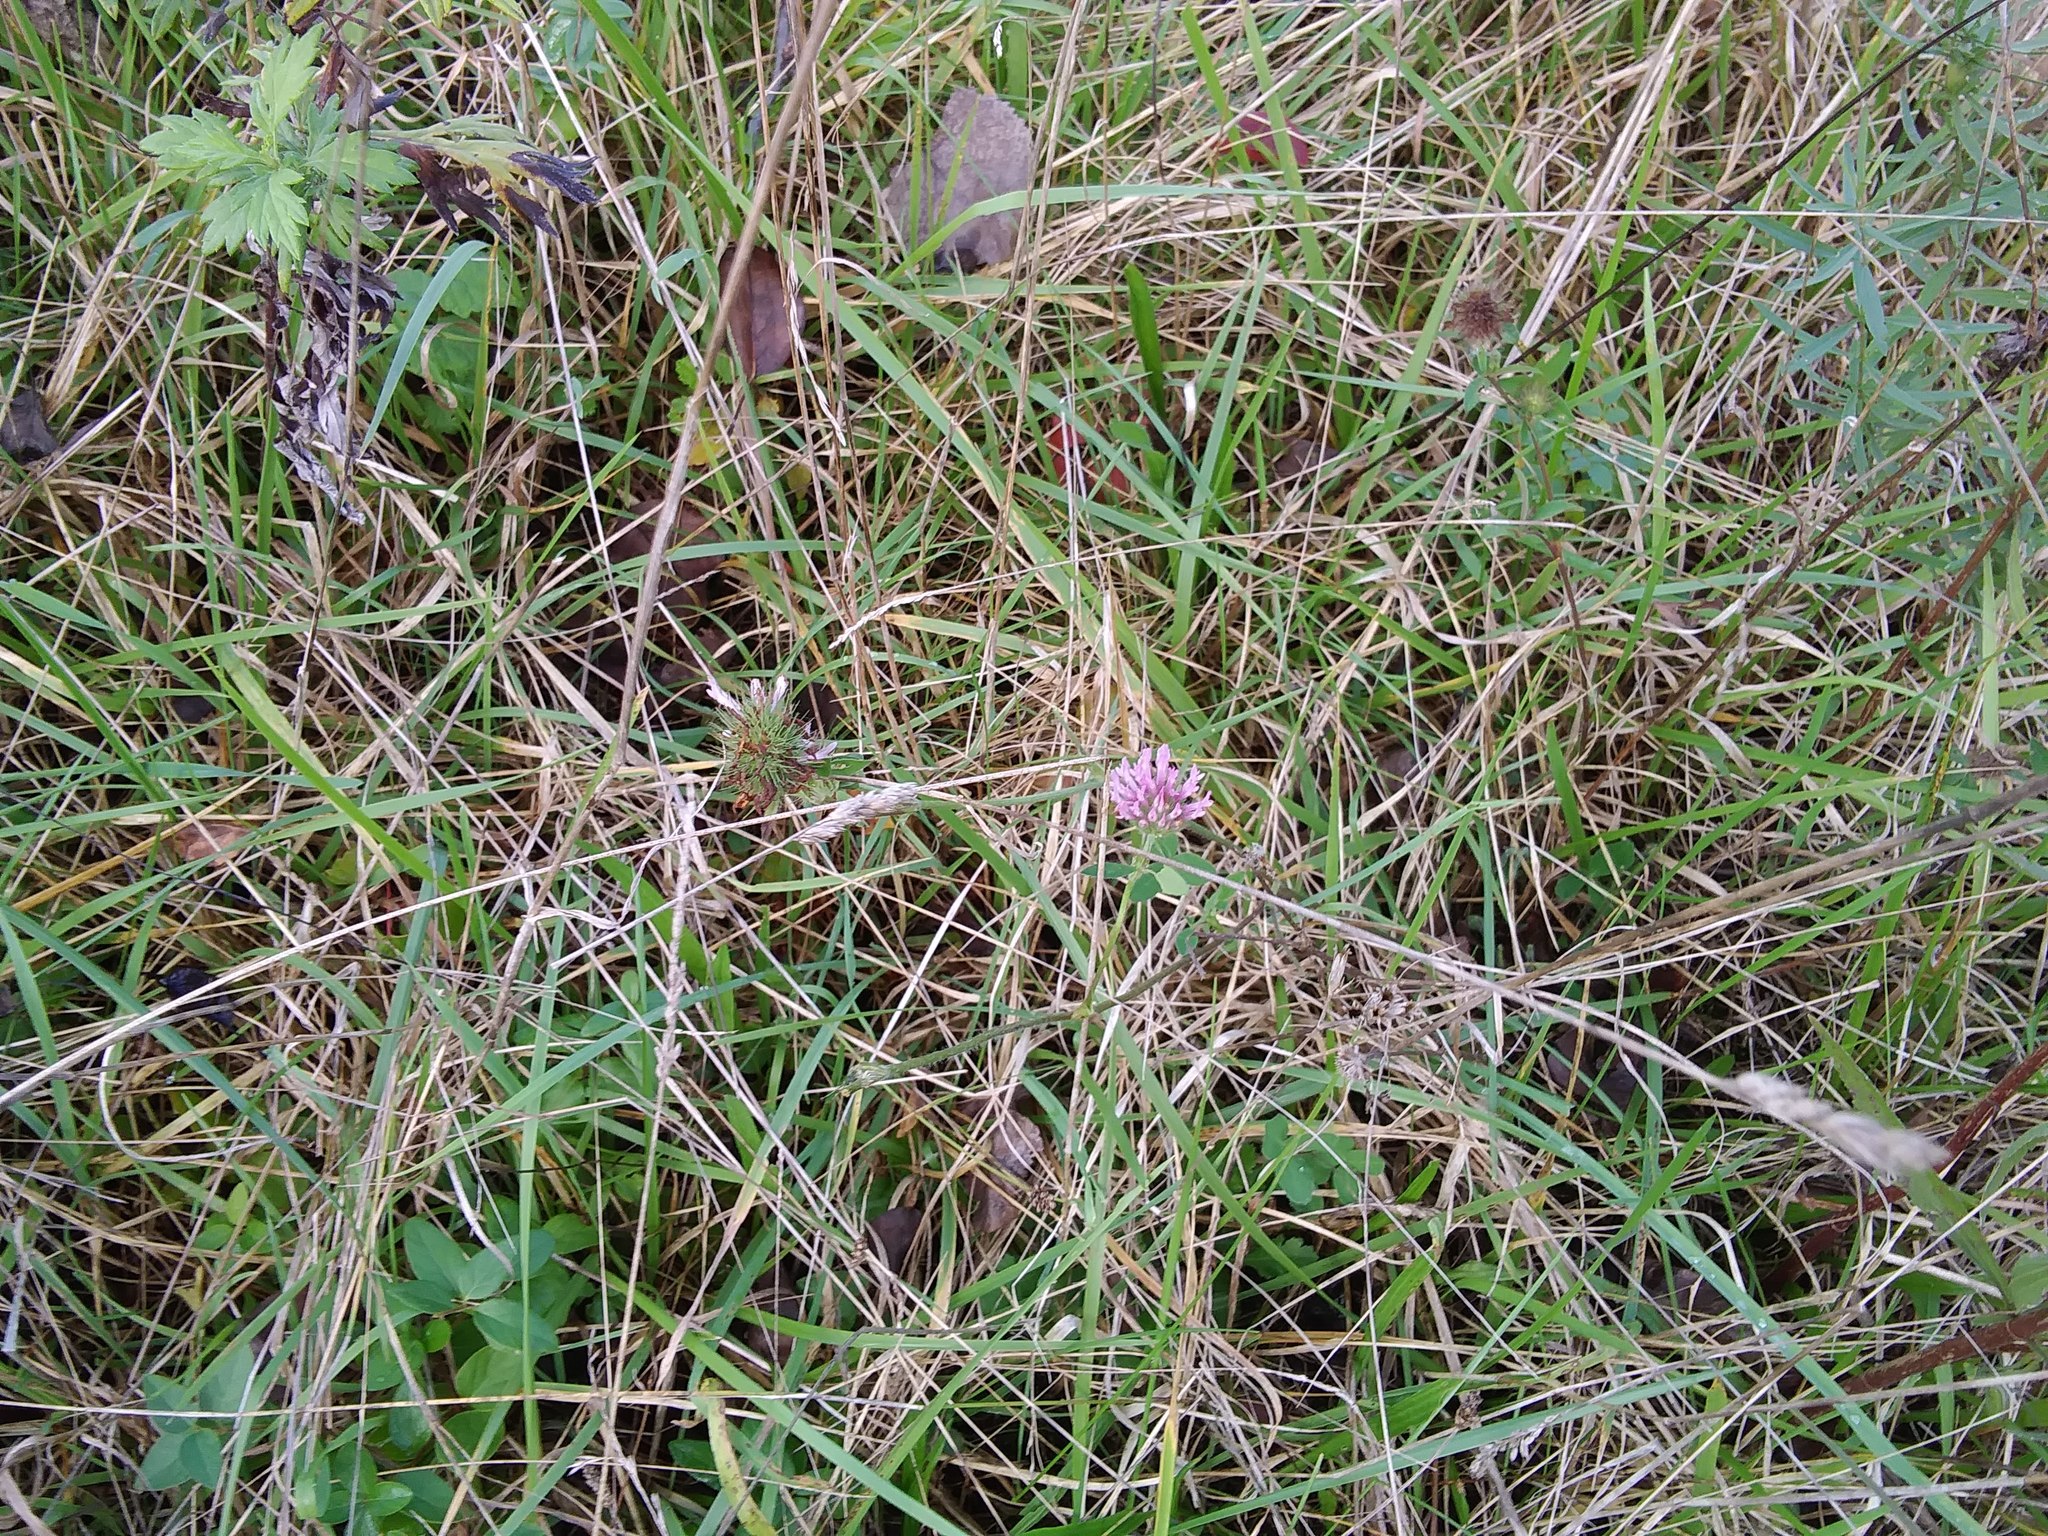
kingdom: Plantae
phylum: Tracheophyta
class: Magnoliopsida
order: Fabales
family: Fabaceae
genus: Trifolium
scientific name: Trifolium pratense
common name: Red clover
